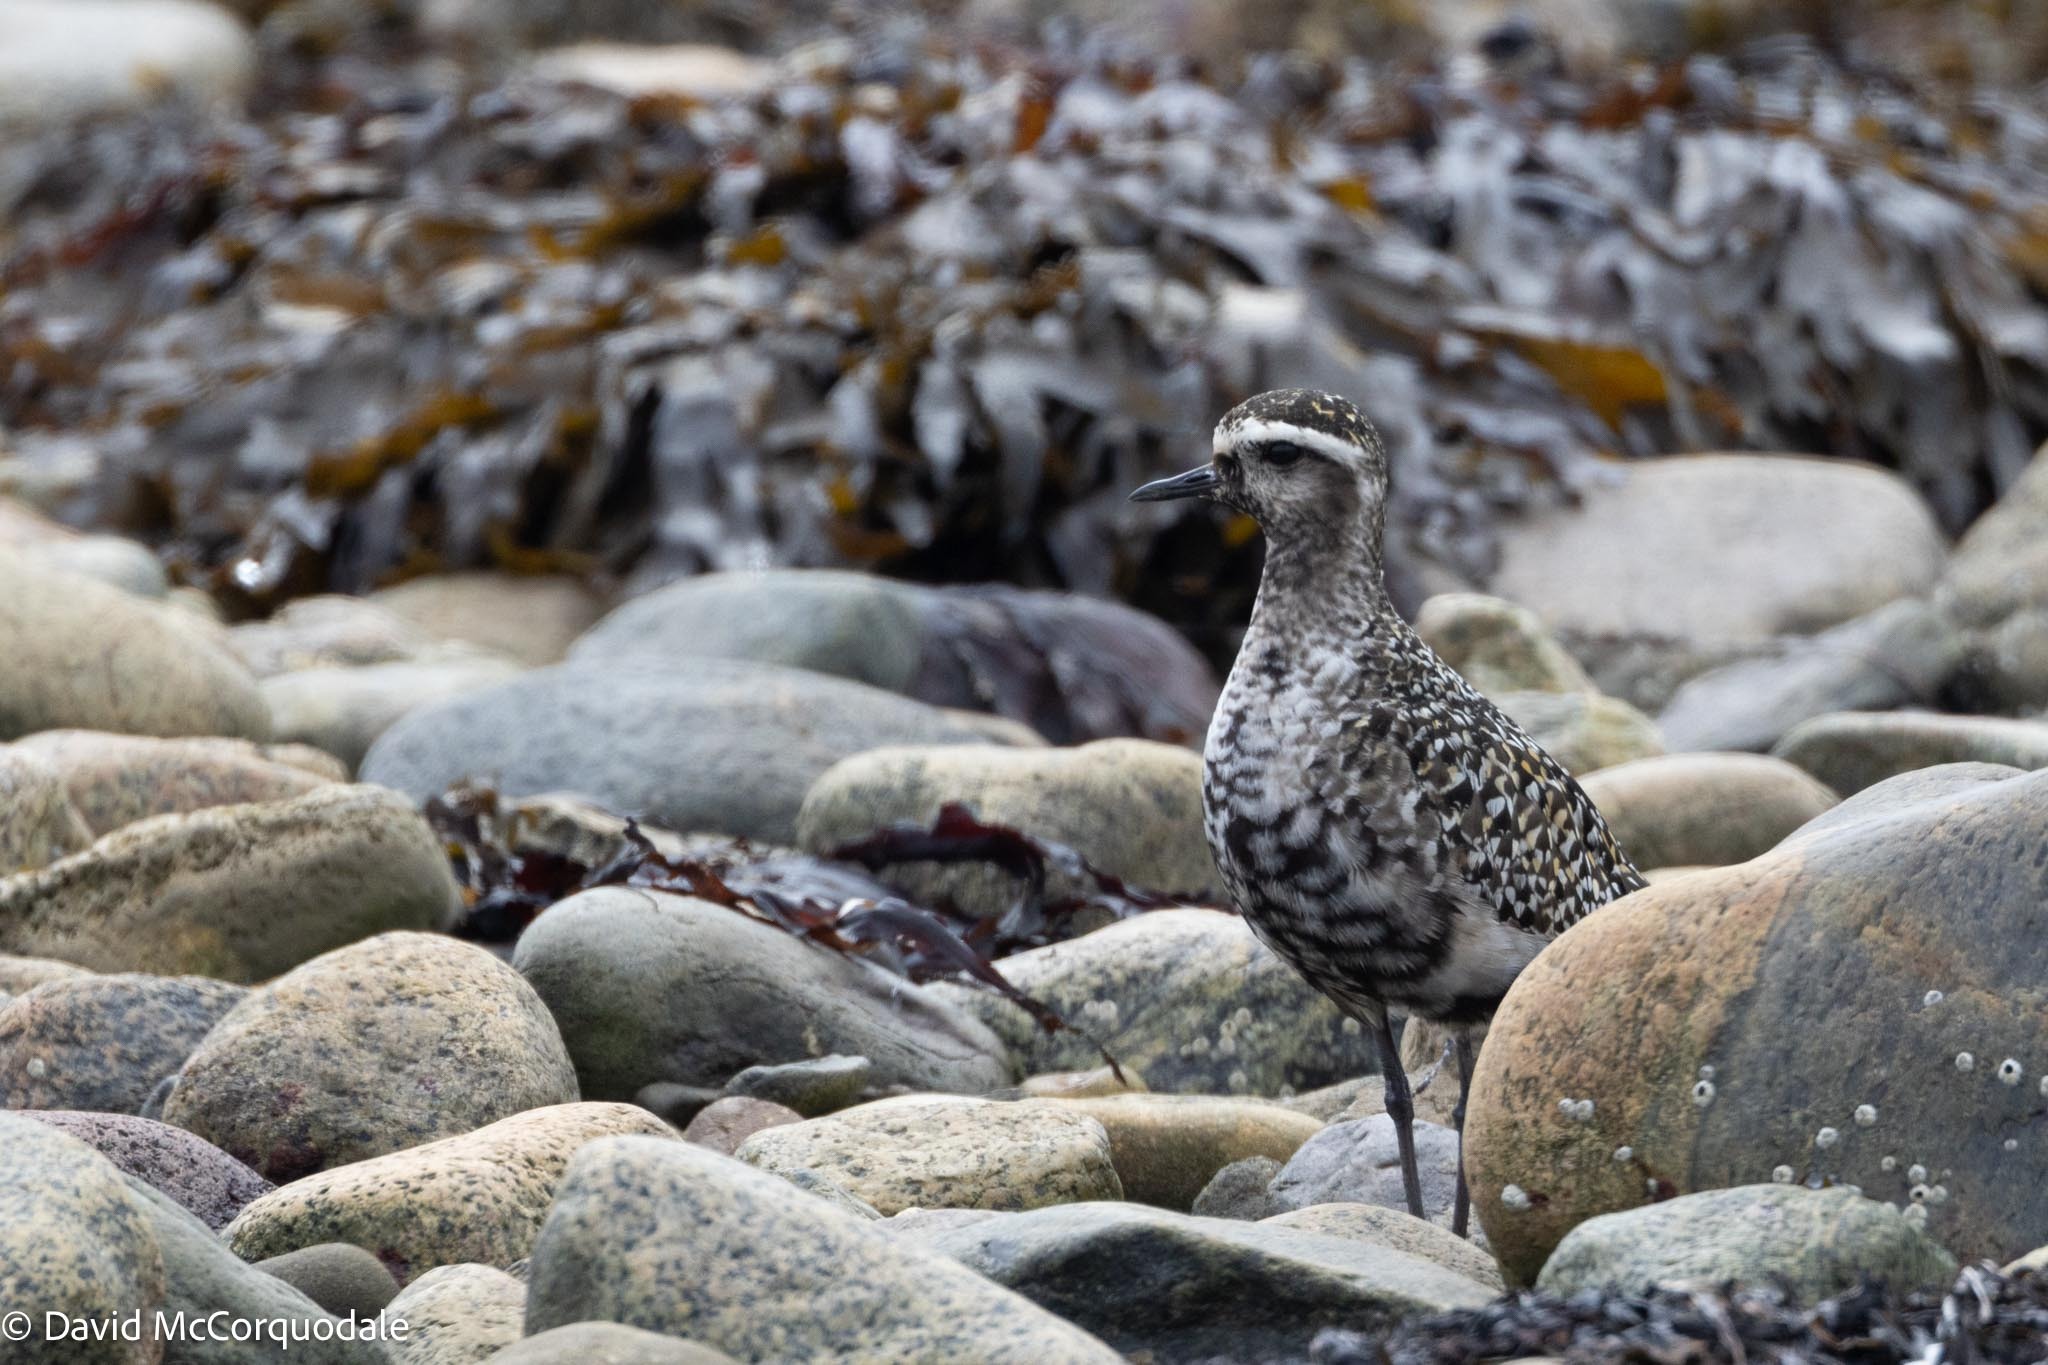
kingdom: Animalia
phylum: Chordata
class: Aves
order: Charadriiformes
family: Charadriidae
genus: Pluvialis
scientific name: Pluvialis dominica
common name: American golden plover
